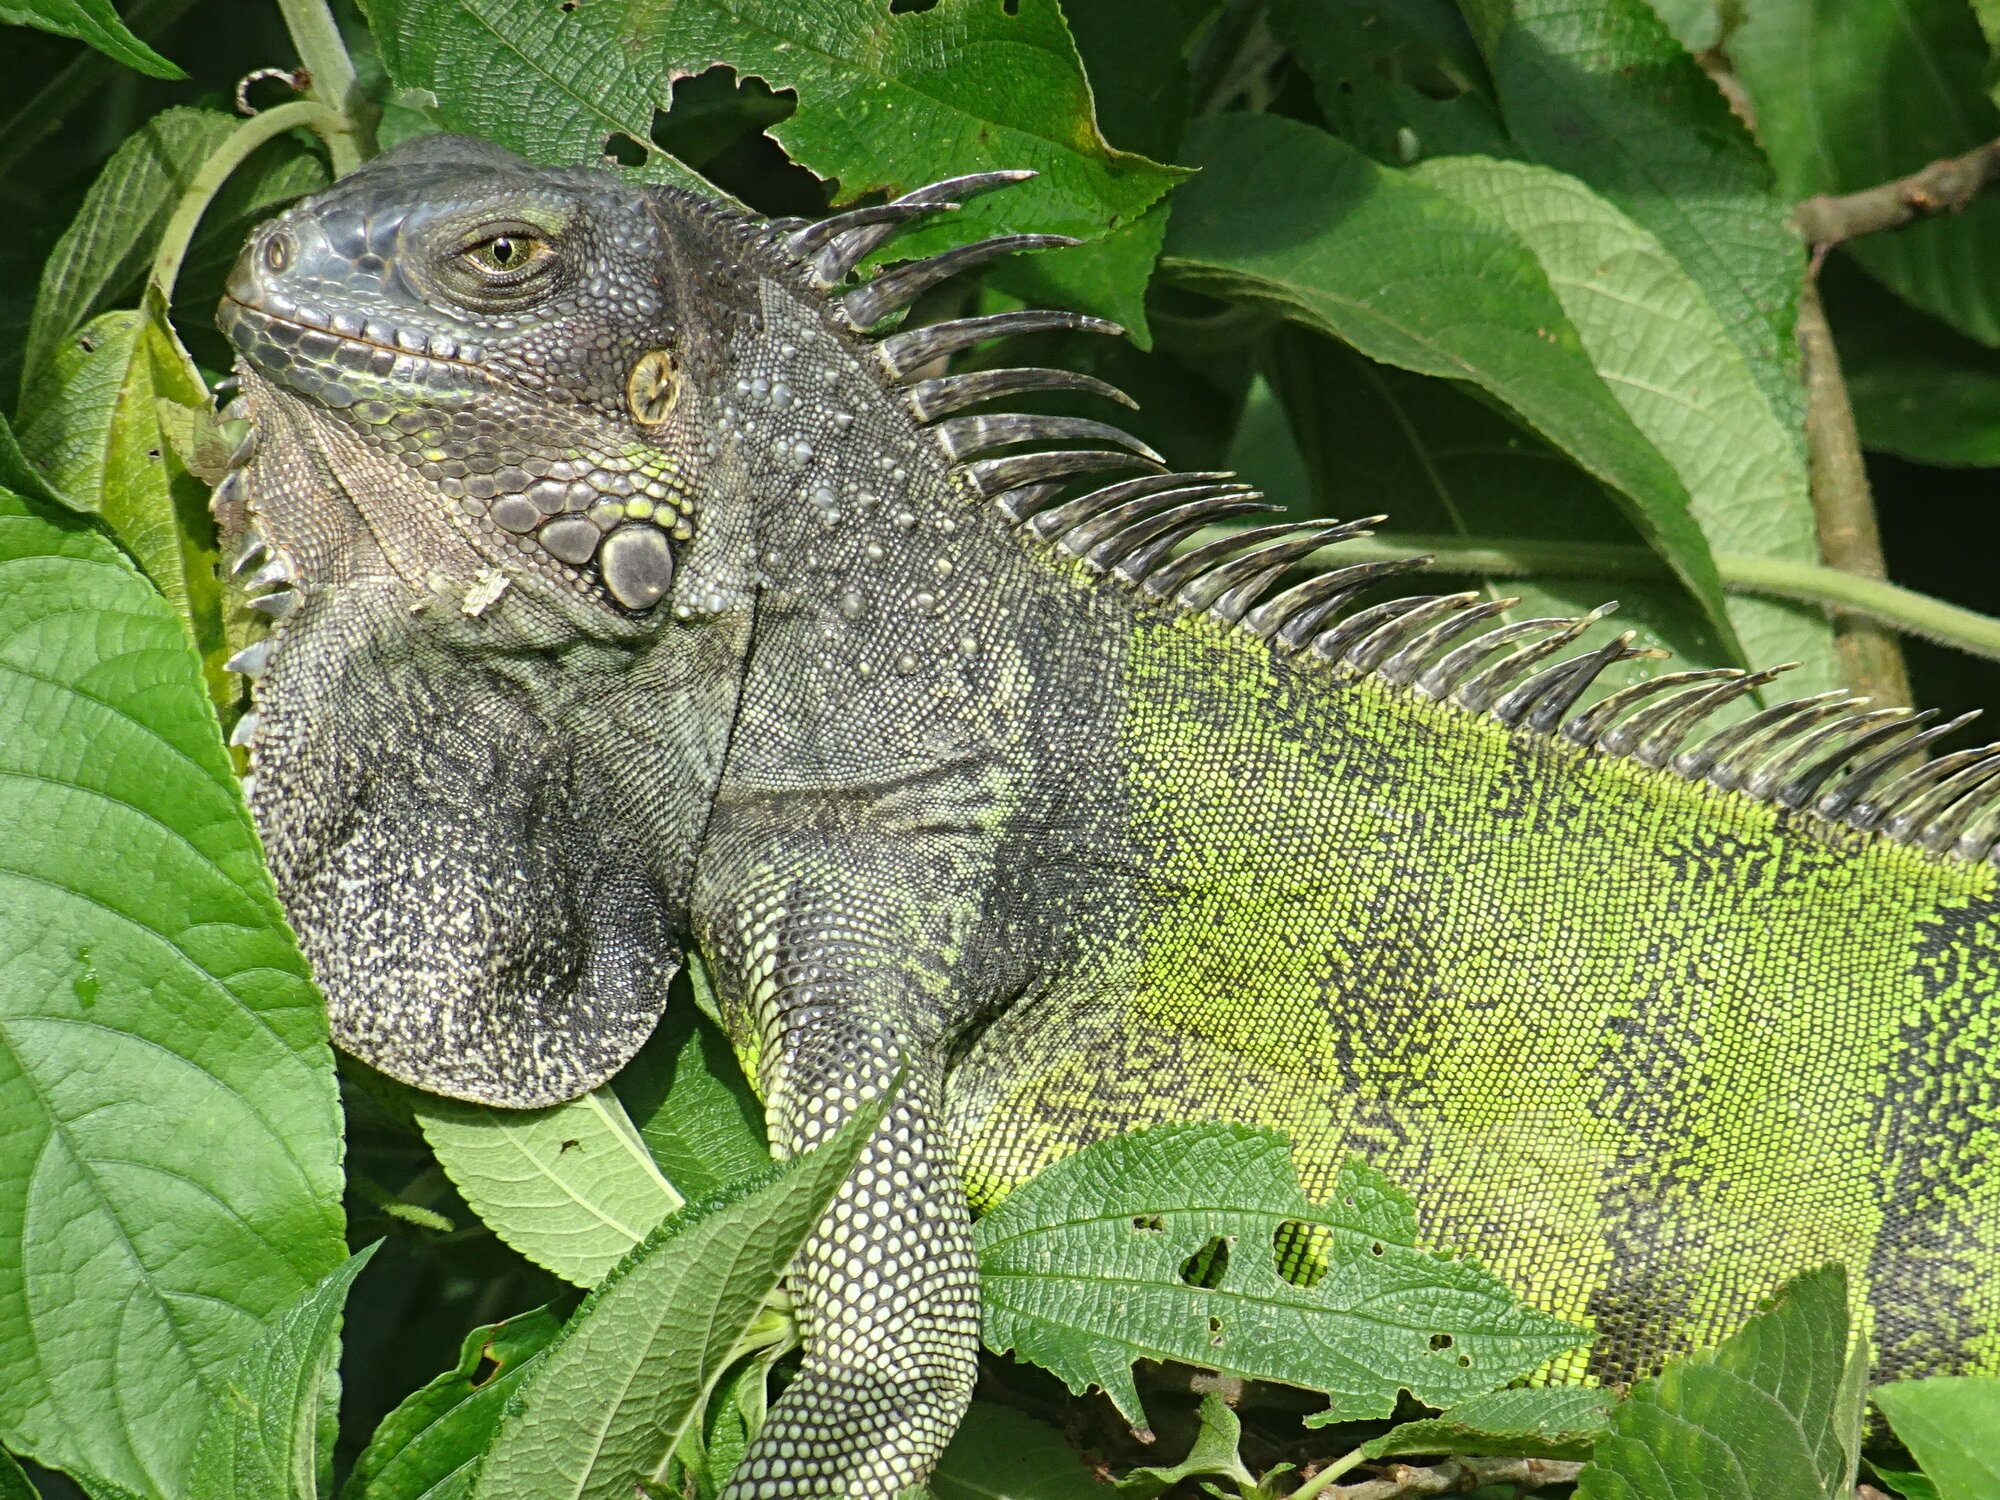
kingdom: Animalia
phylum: Chordata
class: Squamata
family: Iguanidae
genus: Iguana
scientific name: Iguana iguana
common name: Green iguana
